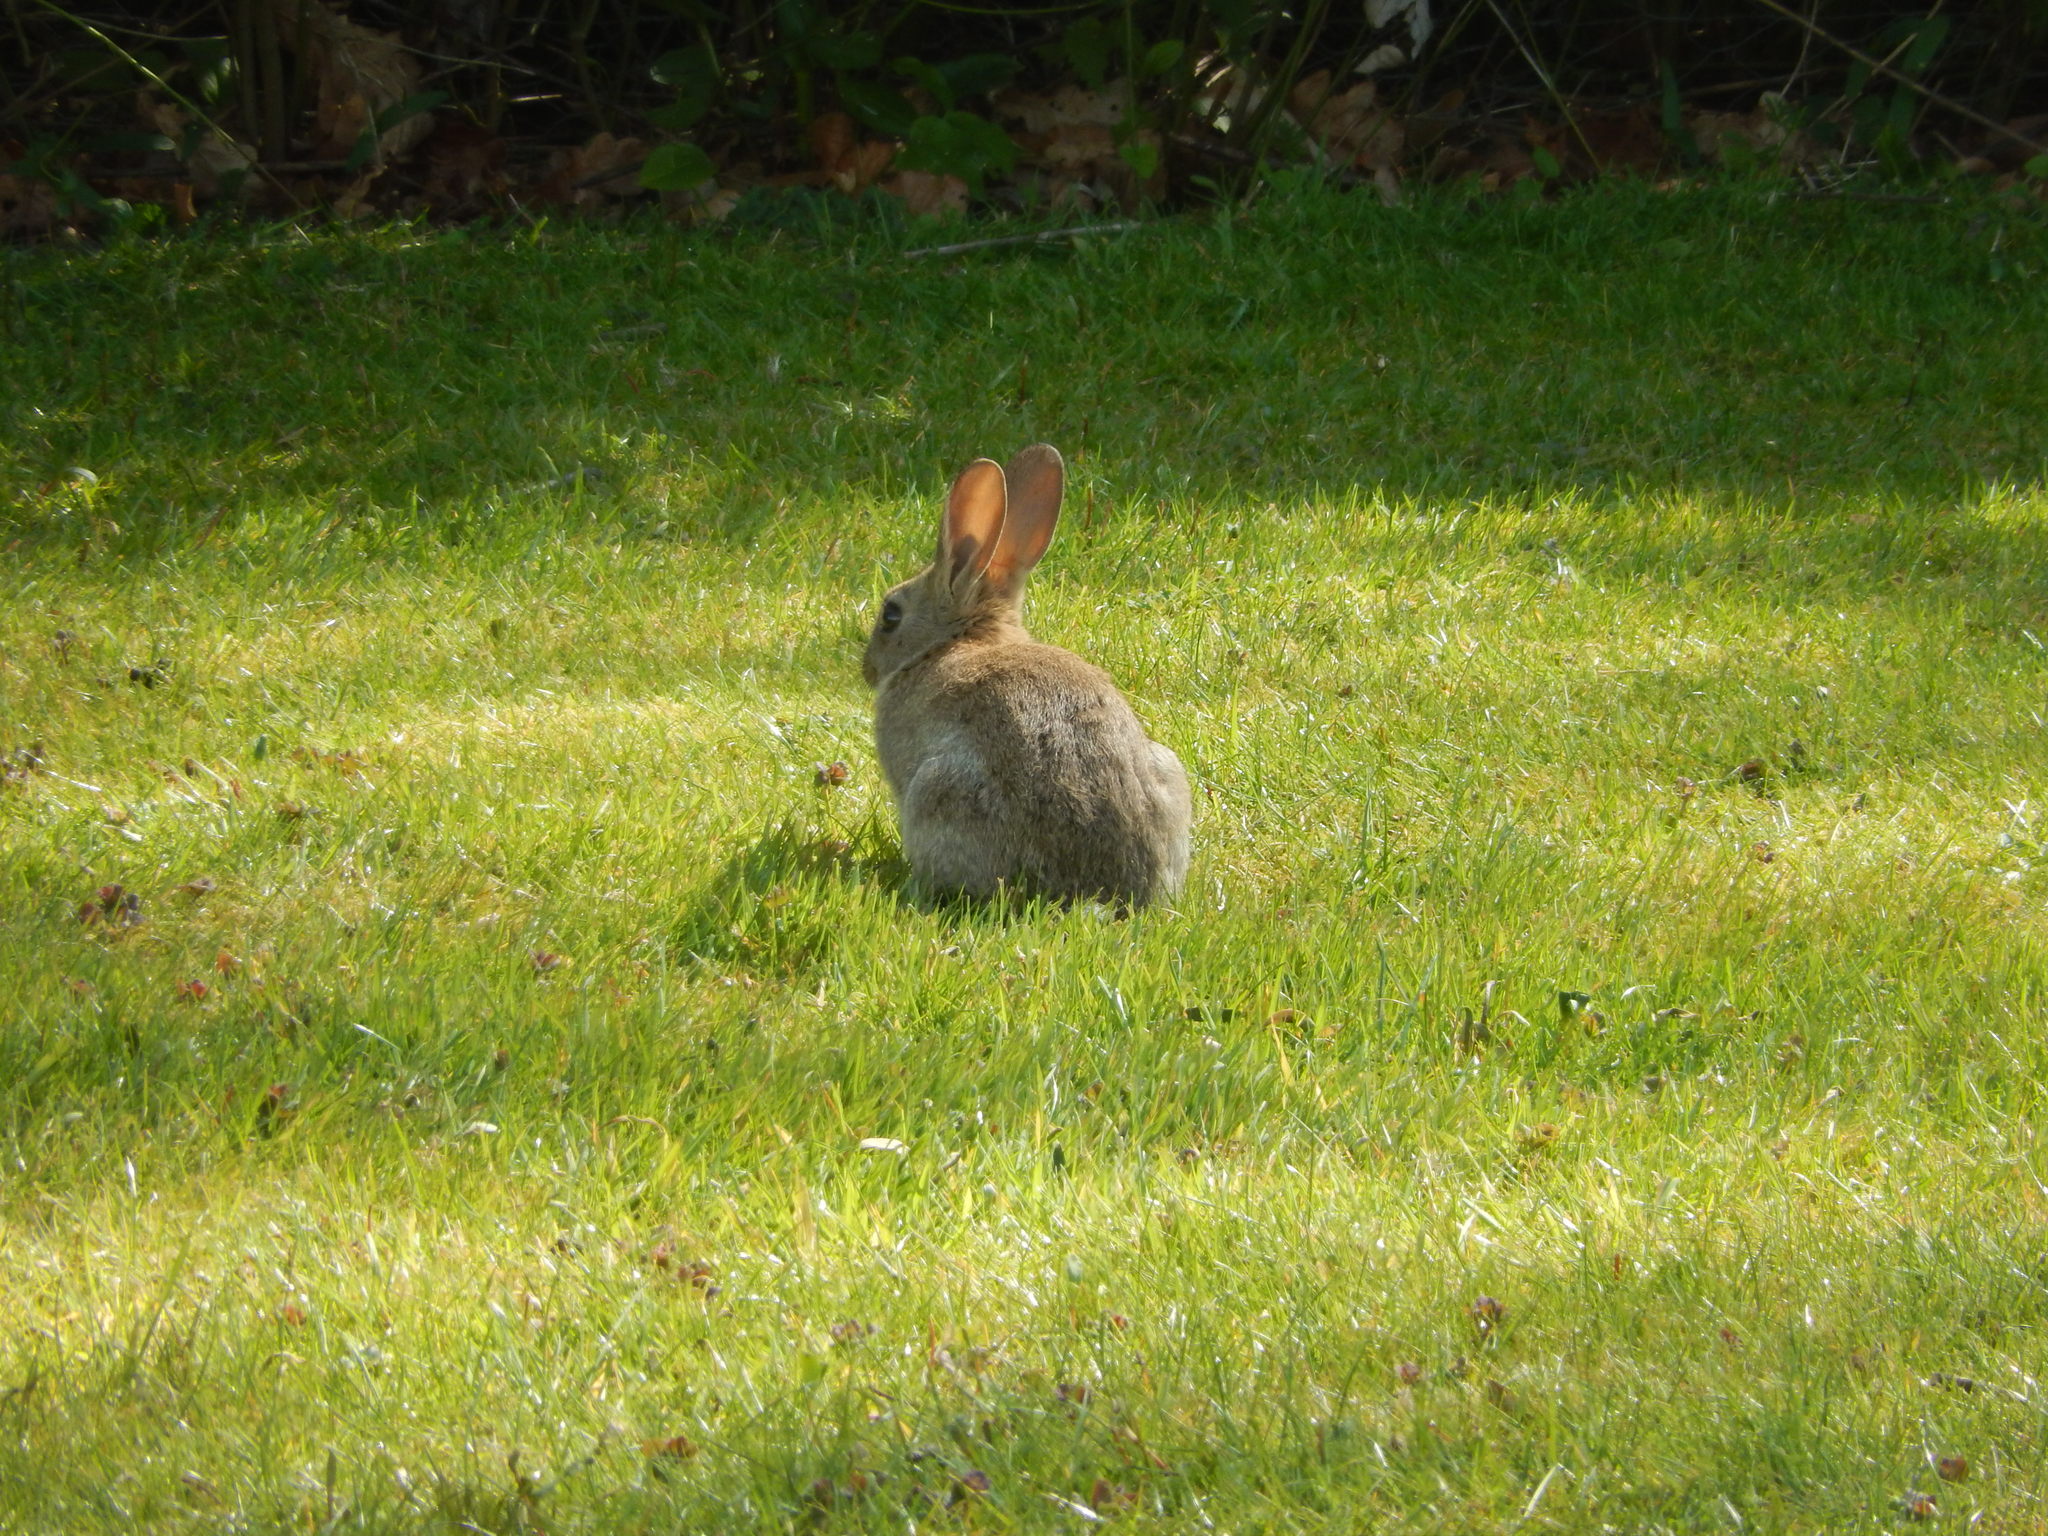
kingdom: Animalia
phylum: Chordata
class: Mammalia
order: Lagomorpha
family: Leporidae
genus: Oryctolagus
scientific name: Oryctolagus cuniculus
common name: European rabbit
